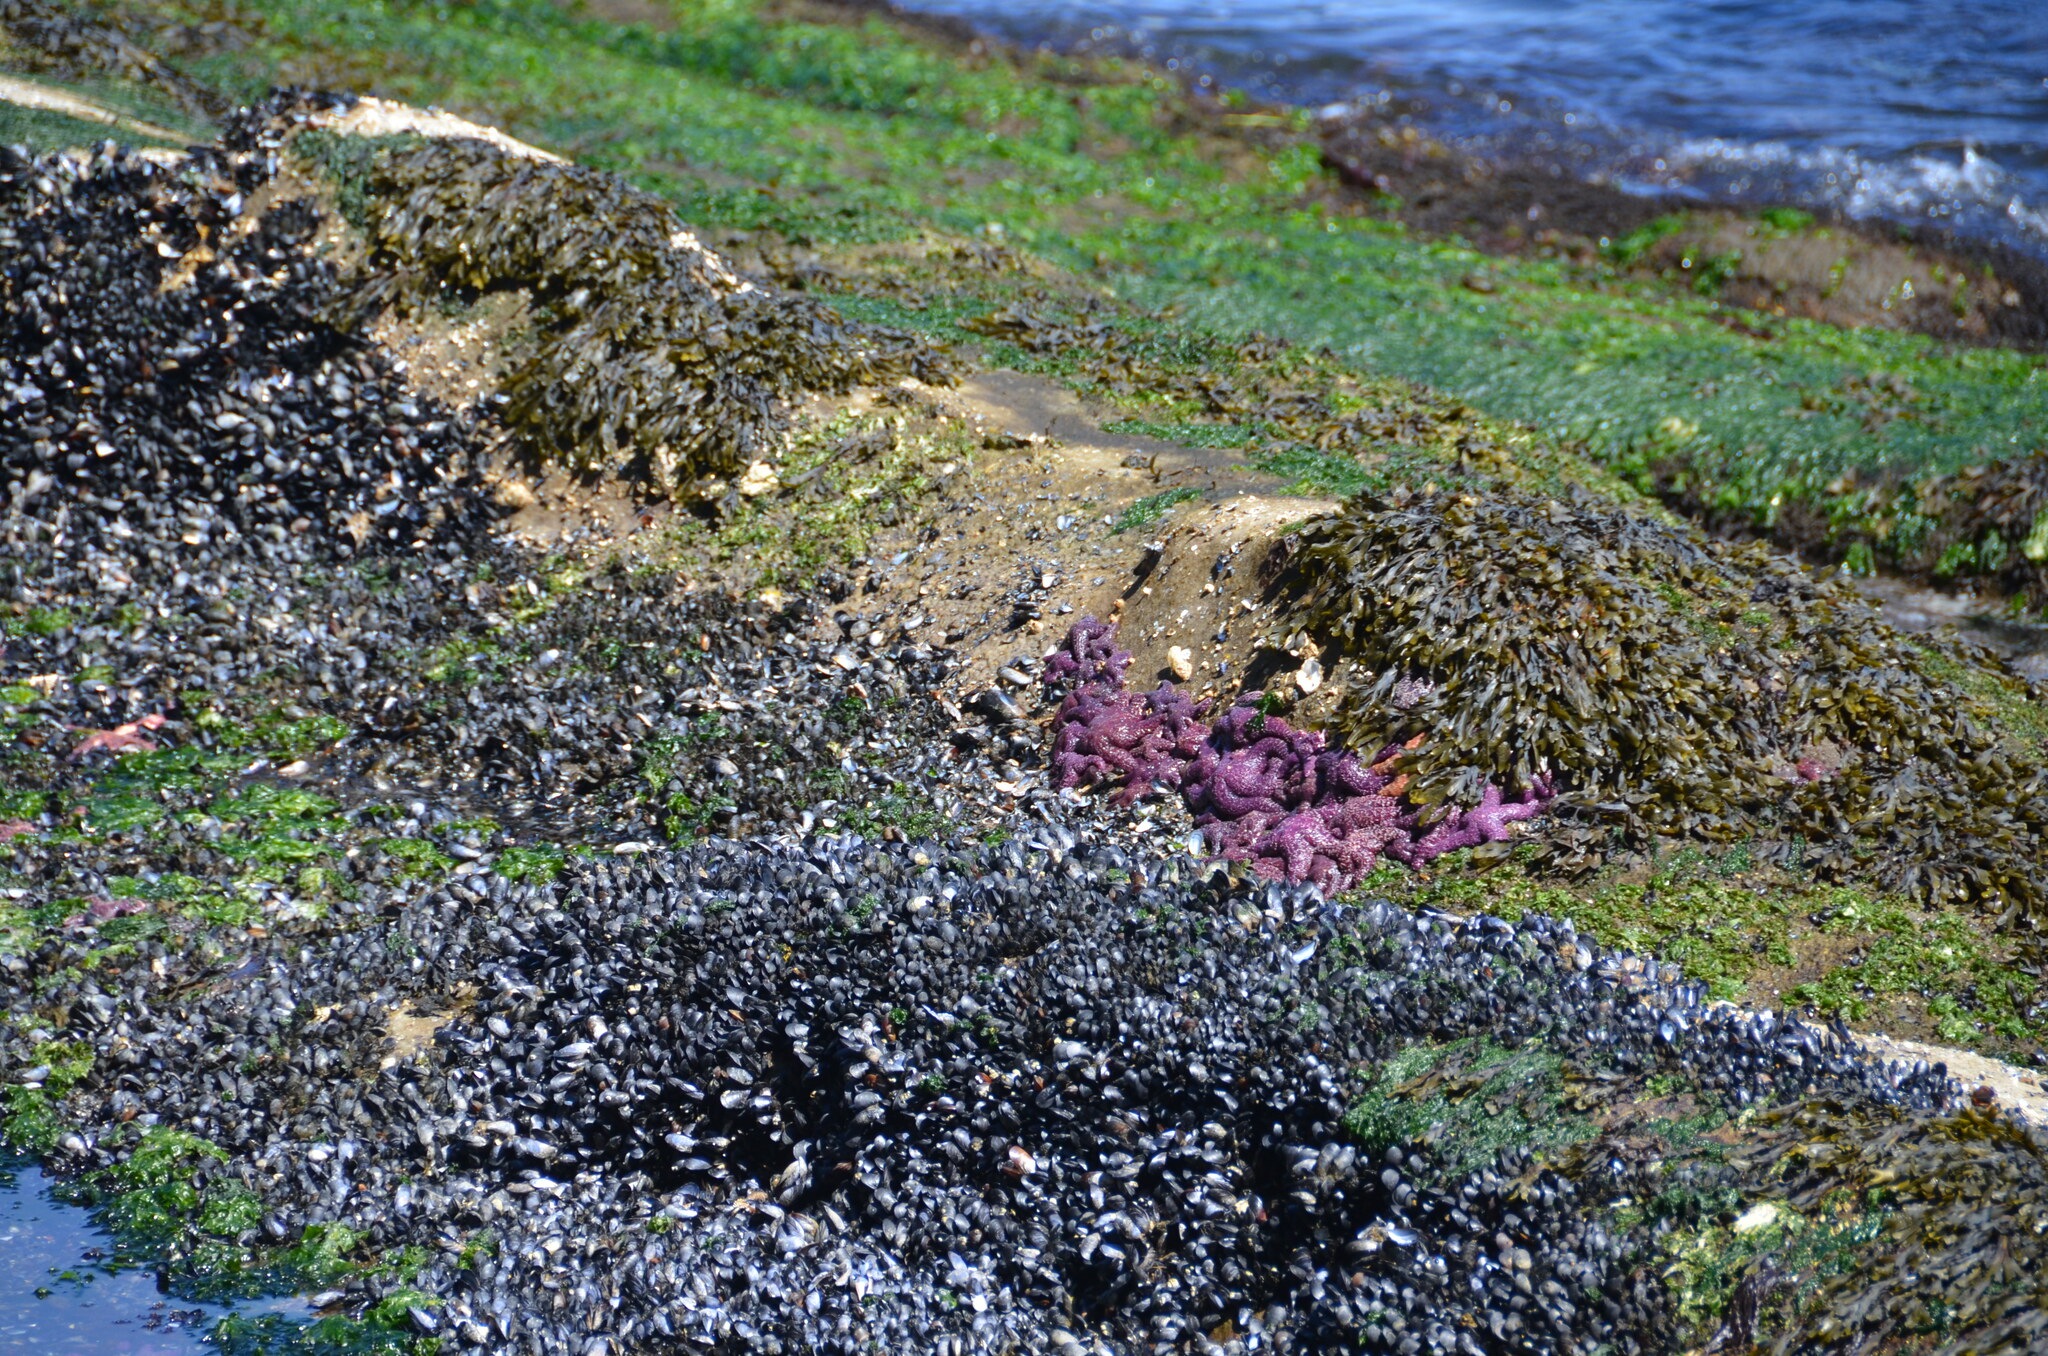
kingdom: Animalia
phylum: Echinodermata
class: Asteroidea
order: Forcipulatida
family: Asteriidae
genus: Pisaster
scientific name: Pisaster ochraceus
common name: Ochre stars
